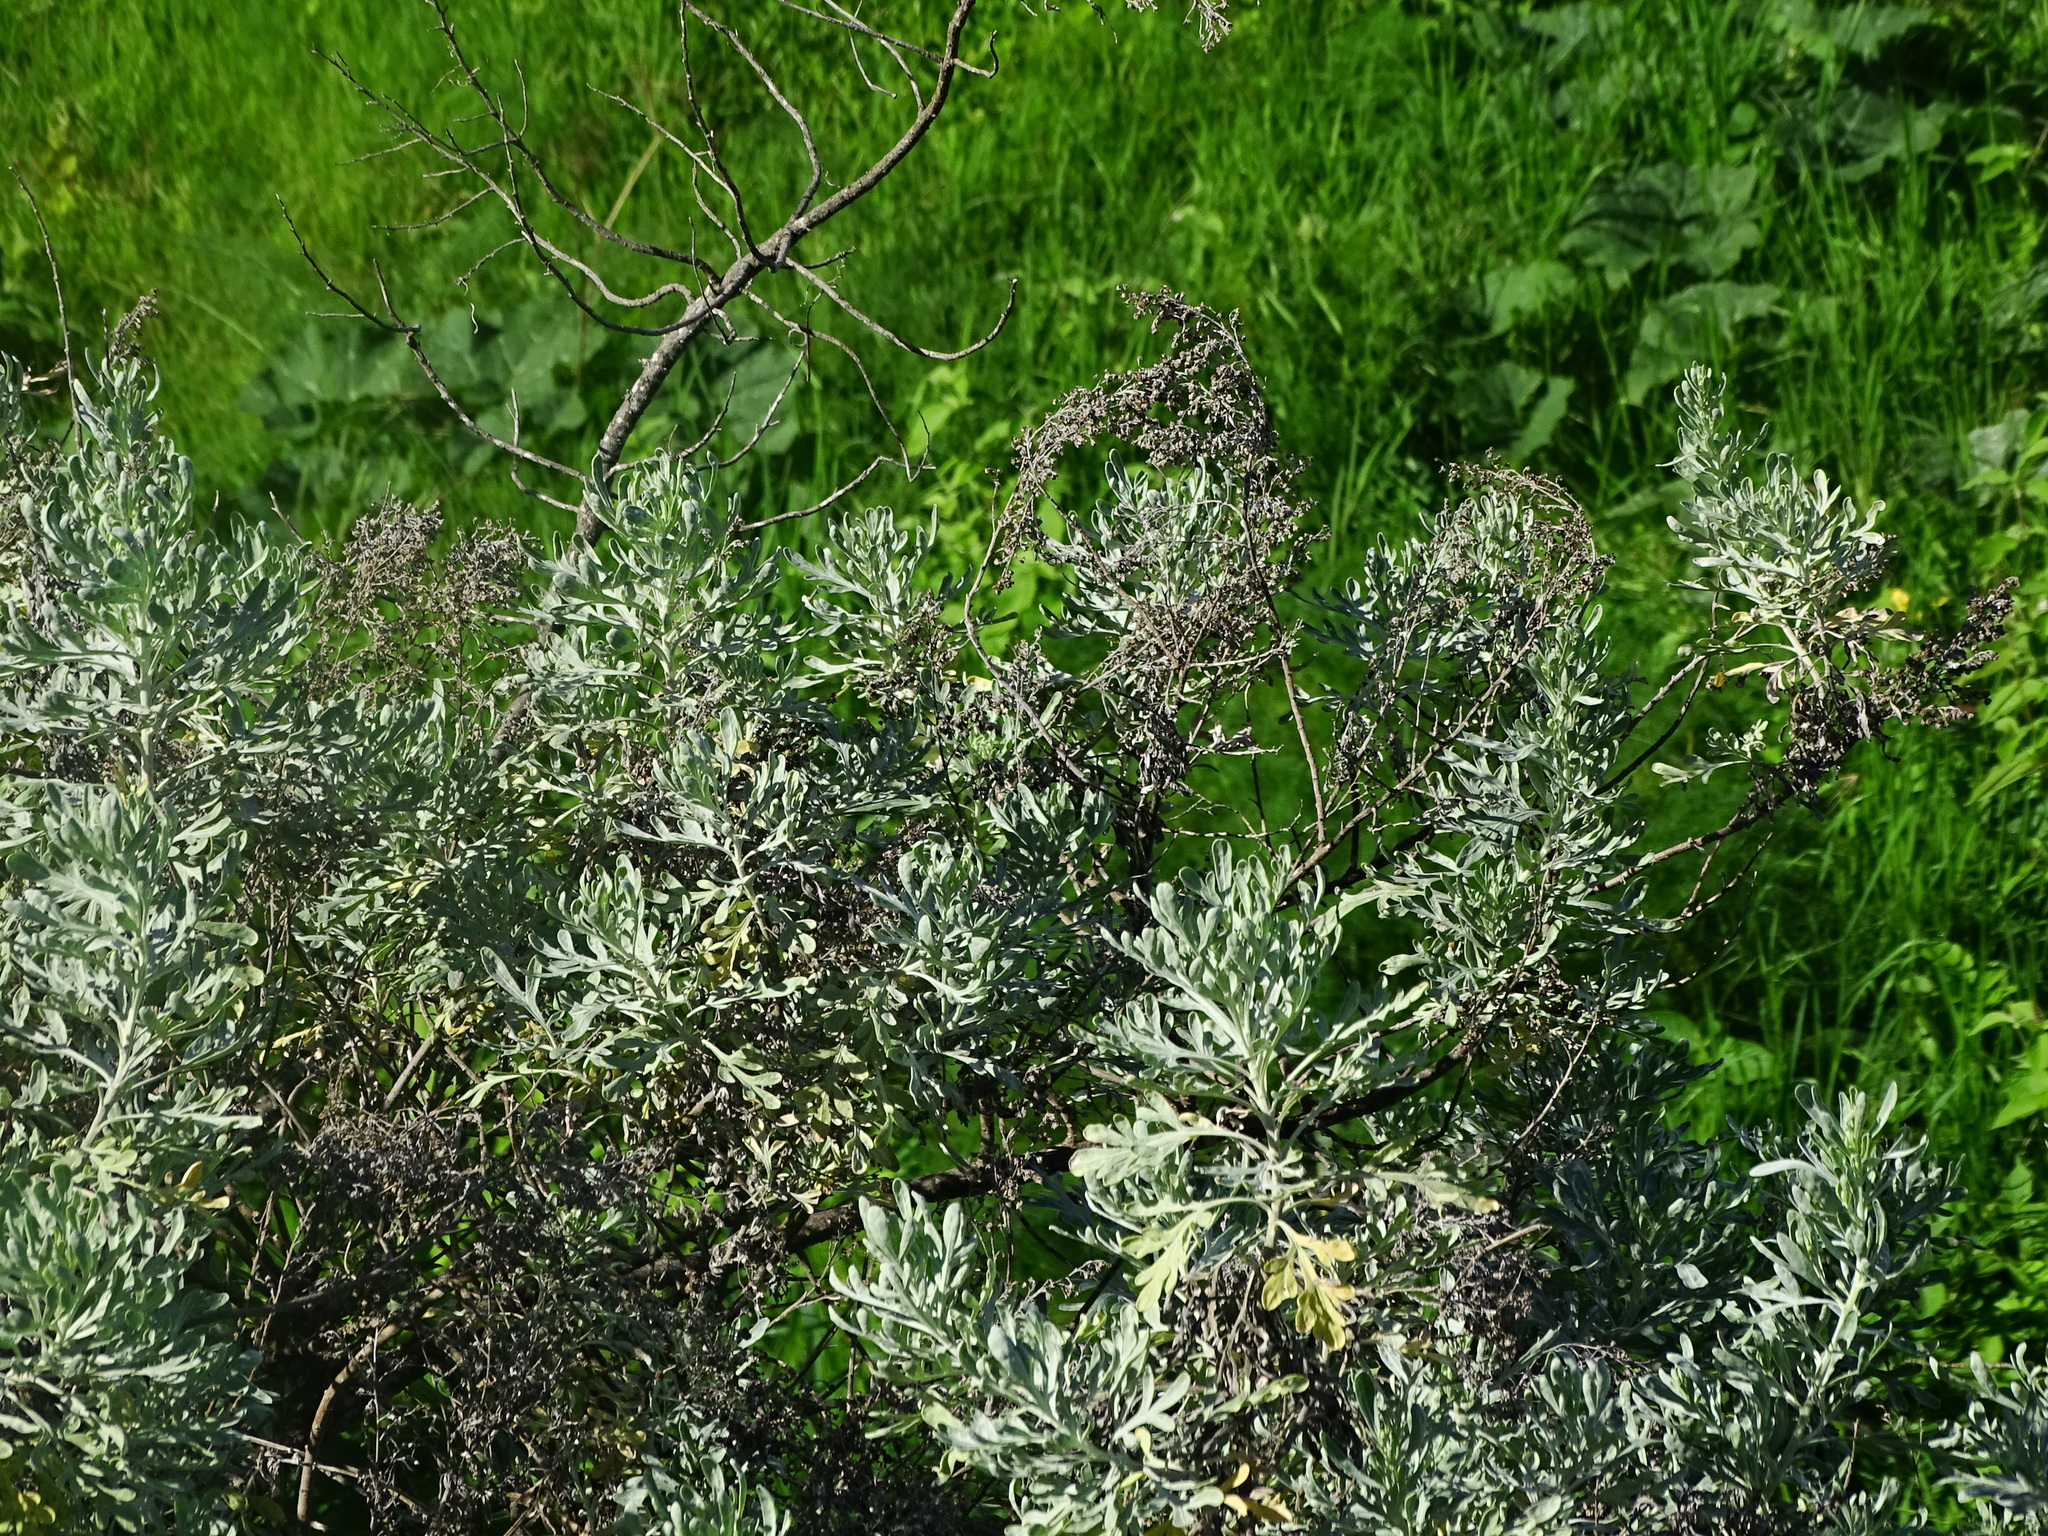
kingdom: Plantae
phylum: Tracheophyta
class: Magnoliopsida
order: Asterales
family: Asteraceae
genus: Artemisia
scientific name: Artemisia thuscula
